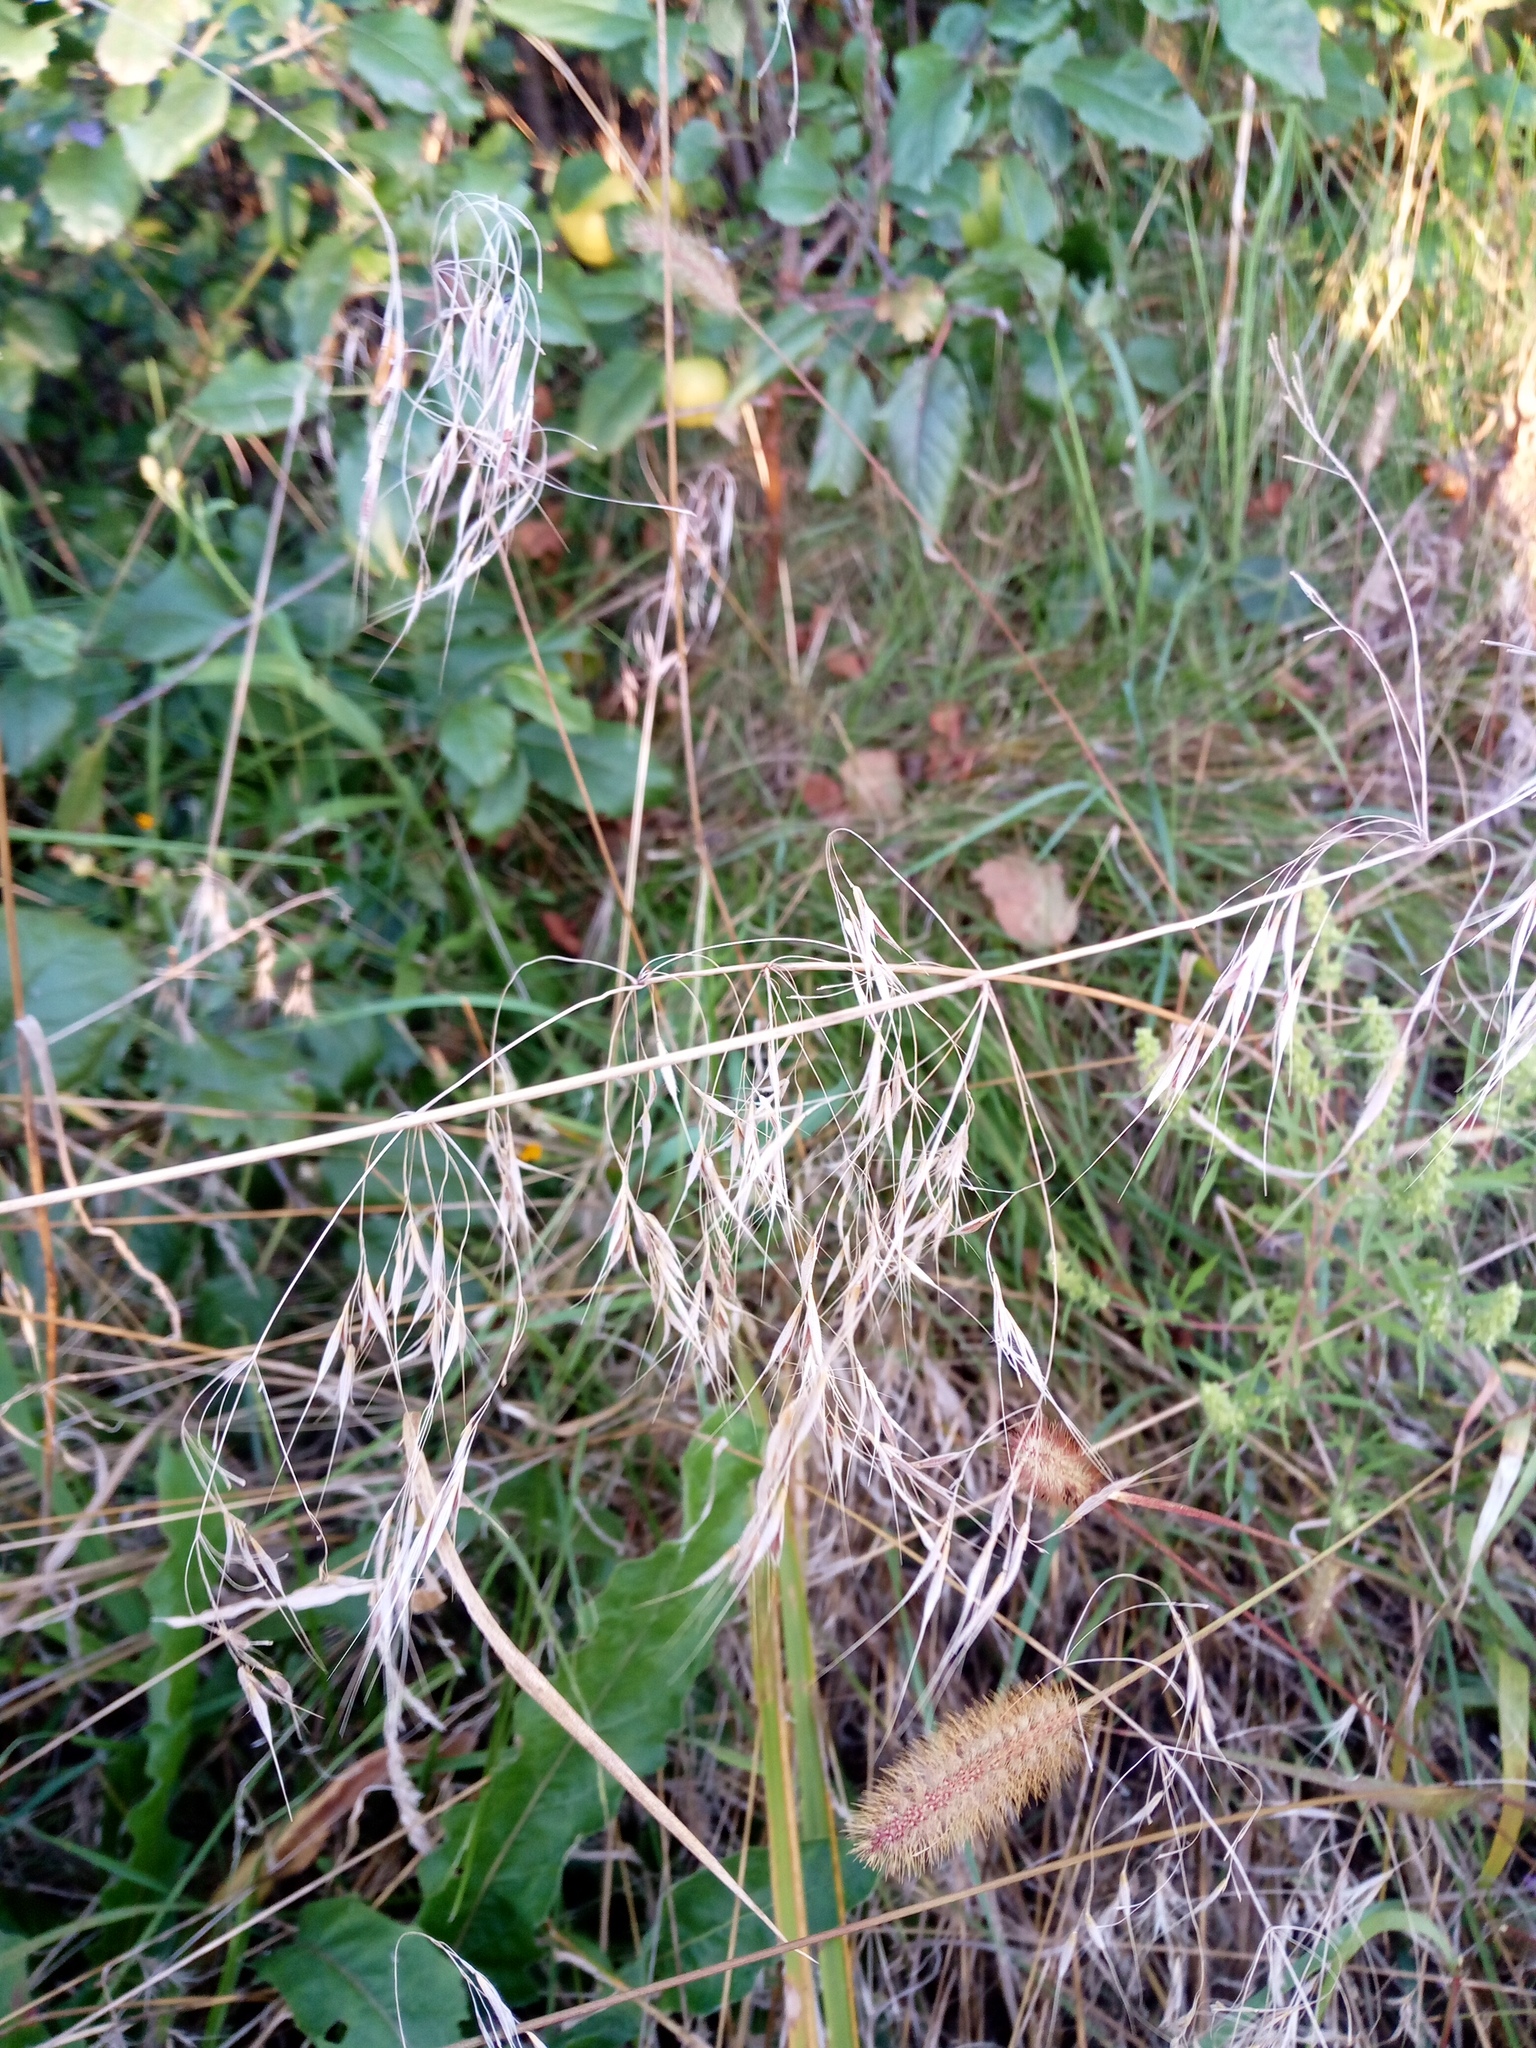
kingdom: Plantae
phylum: Tracheophyta
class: Liliopsida
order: Poales
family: Poaceae
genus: Bromus
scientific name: Bromus tectorum
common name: Cheatgrass
